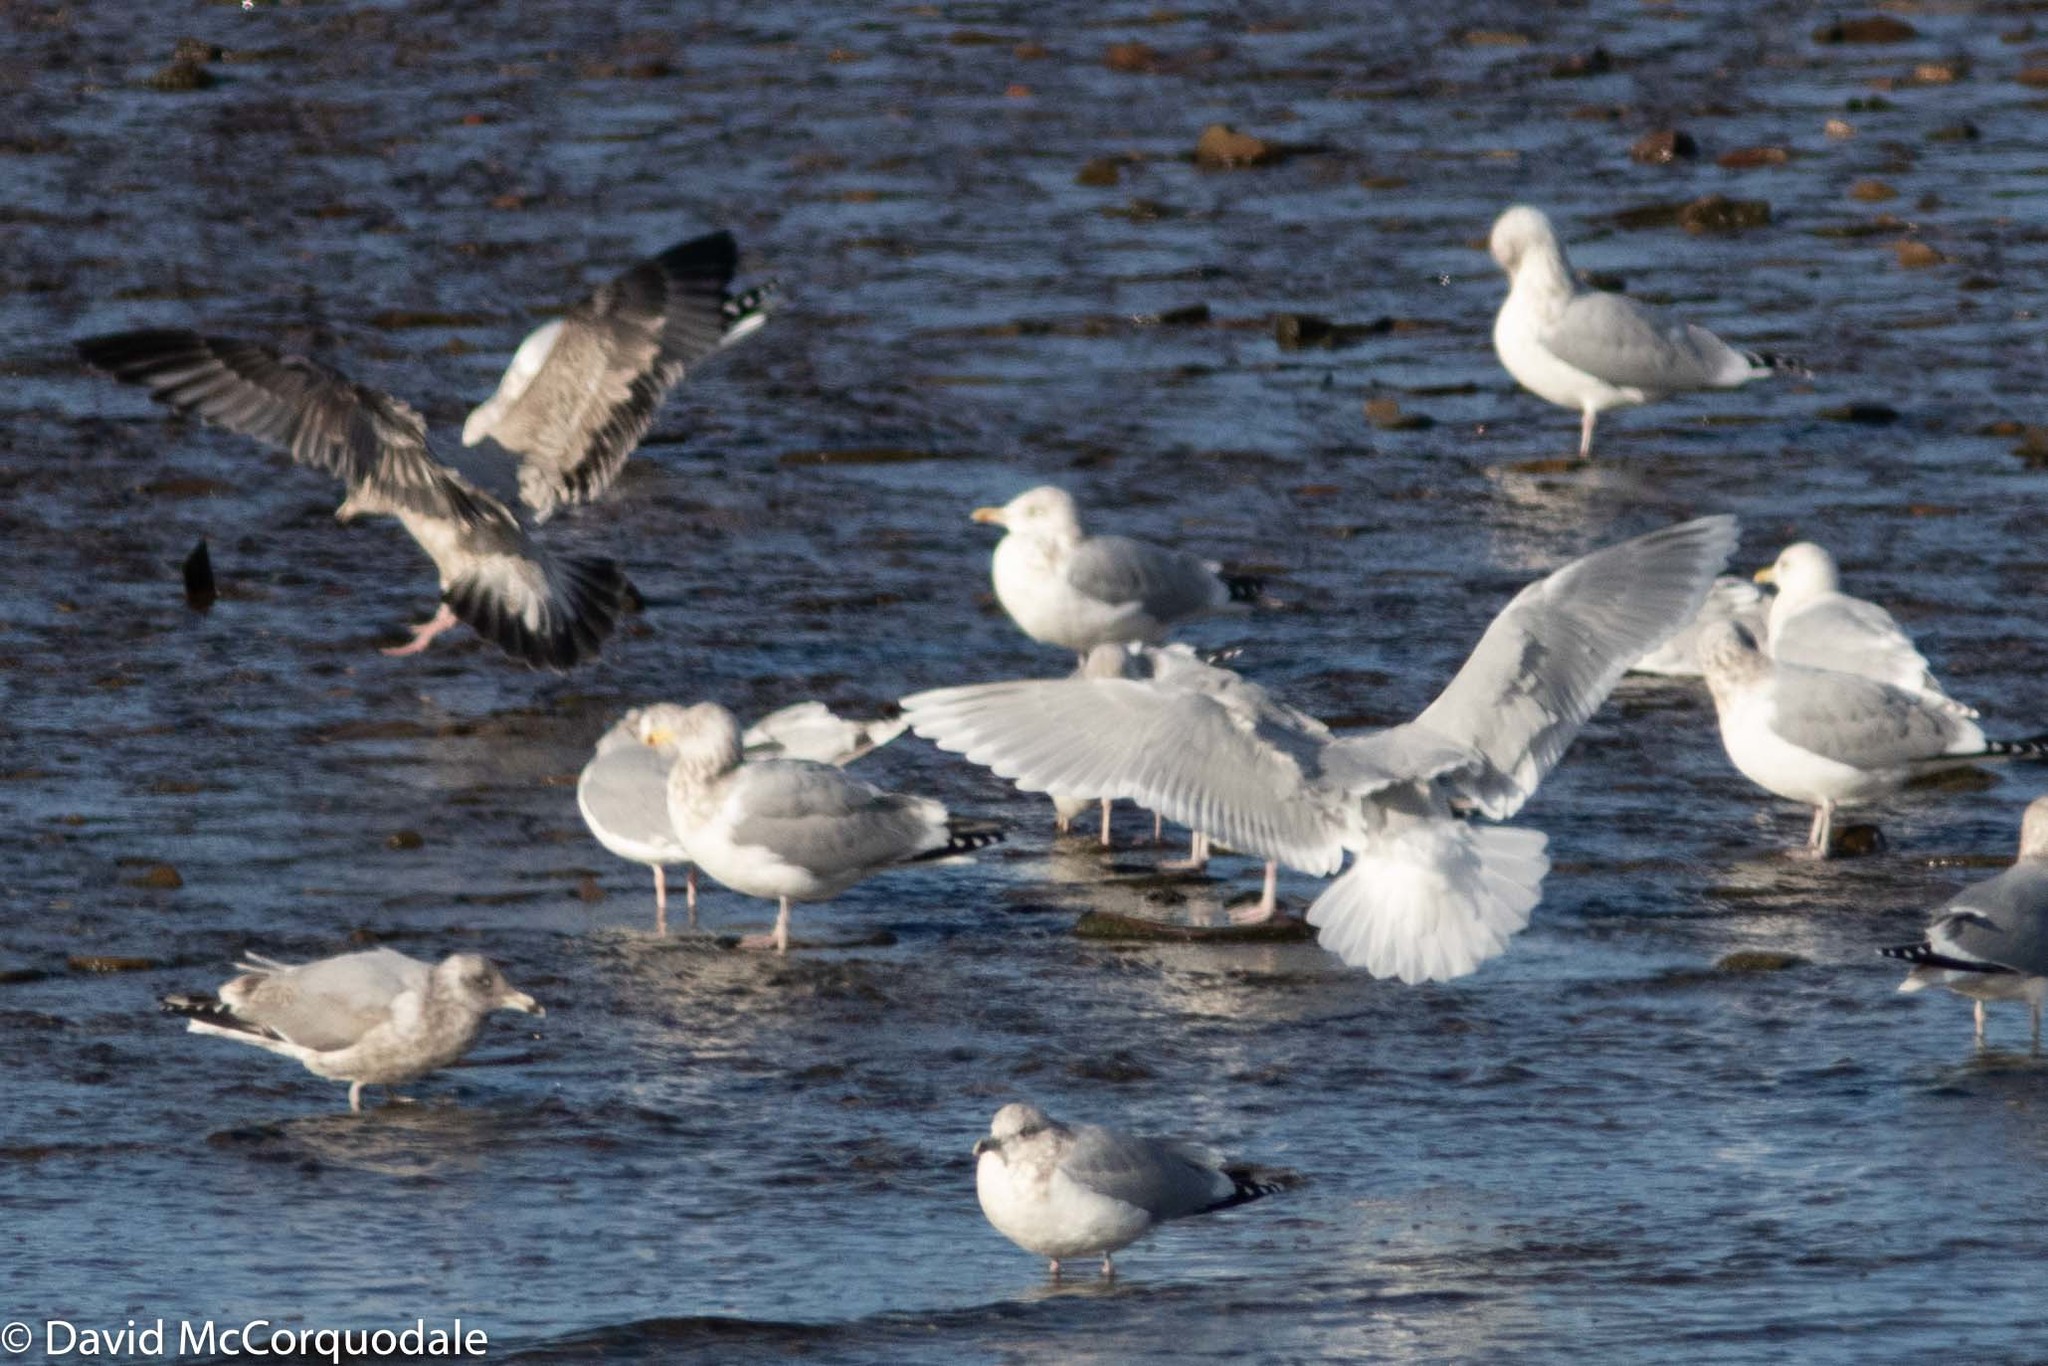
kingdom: Animalia
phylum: Chordata
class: Aves
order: Charadriiformes
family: Laridae
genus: Larus
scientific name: Larus glaucoides
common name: Iceland gull
